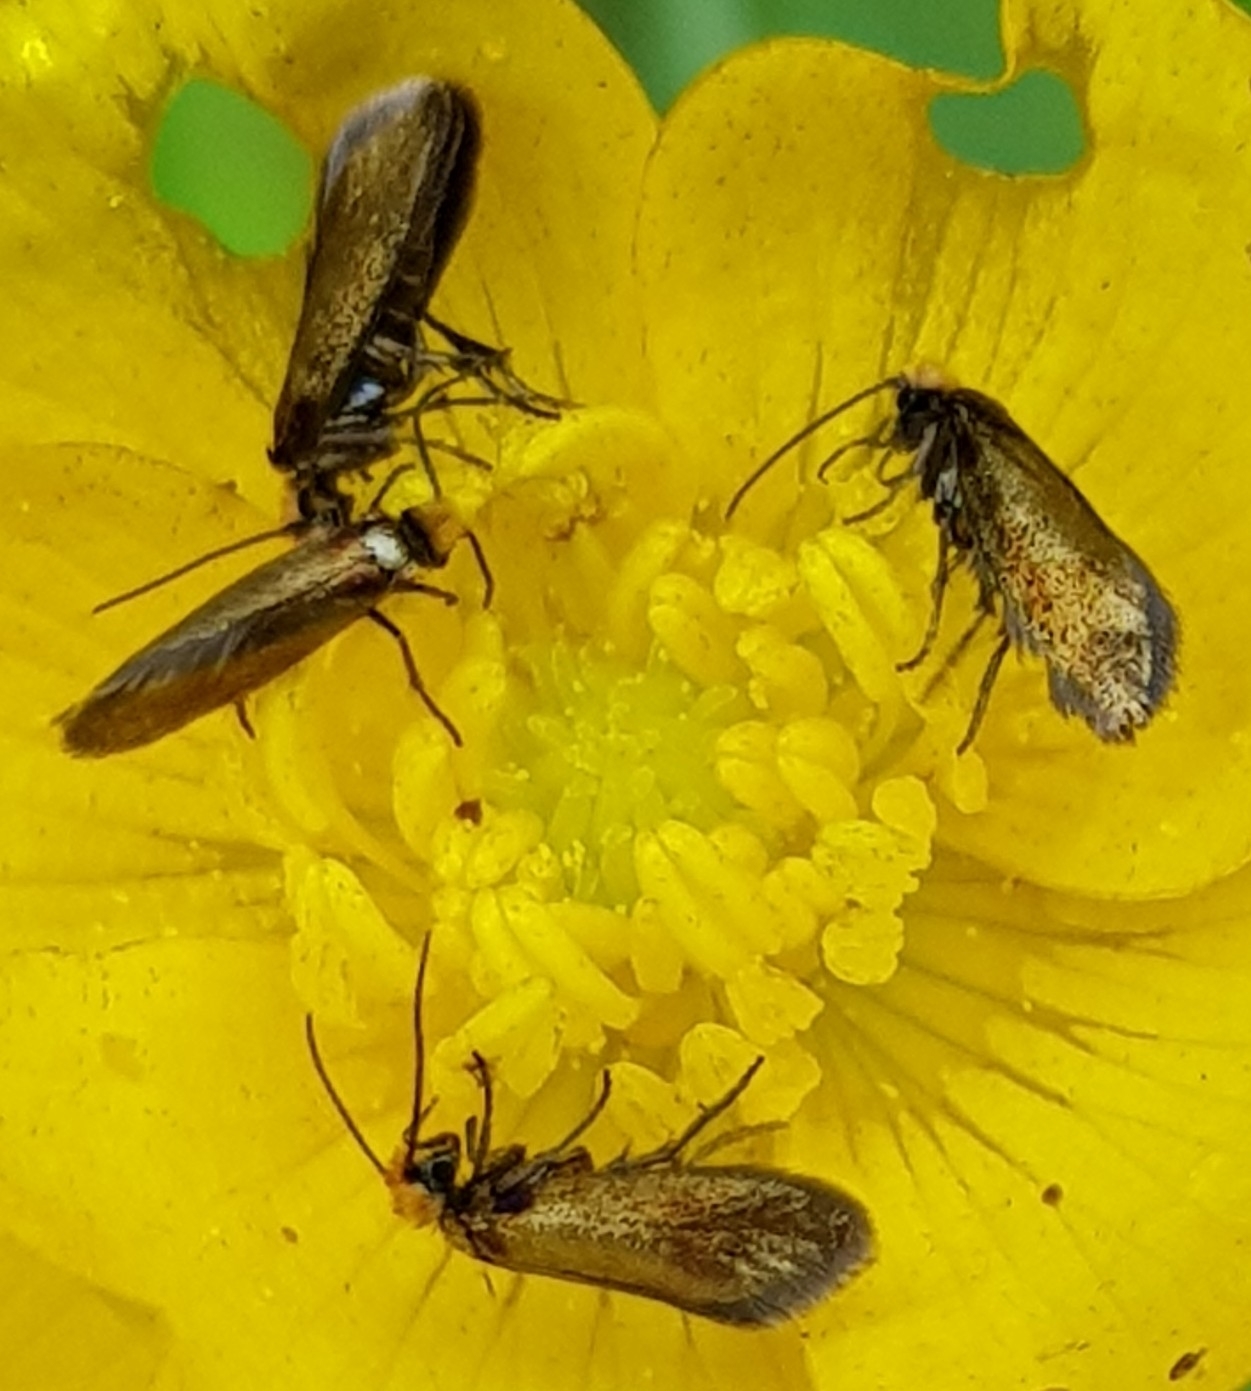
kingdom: Animalia
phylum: Arthropoda
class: Insecta
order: Lepidoptera
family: Micropterigidae
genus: Micropterix
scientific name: Micropterix calthella
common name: Plain gold
